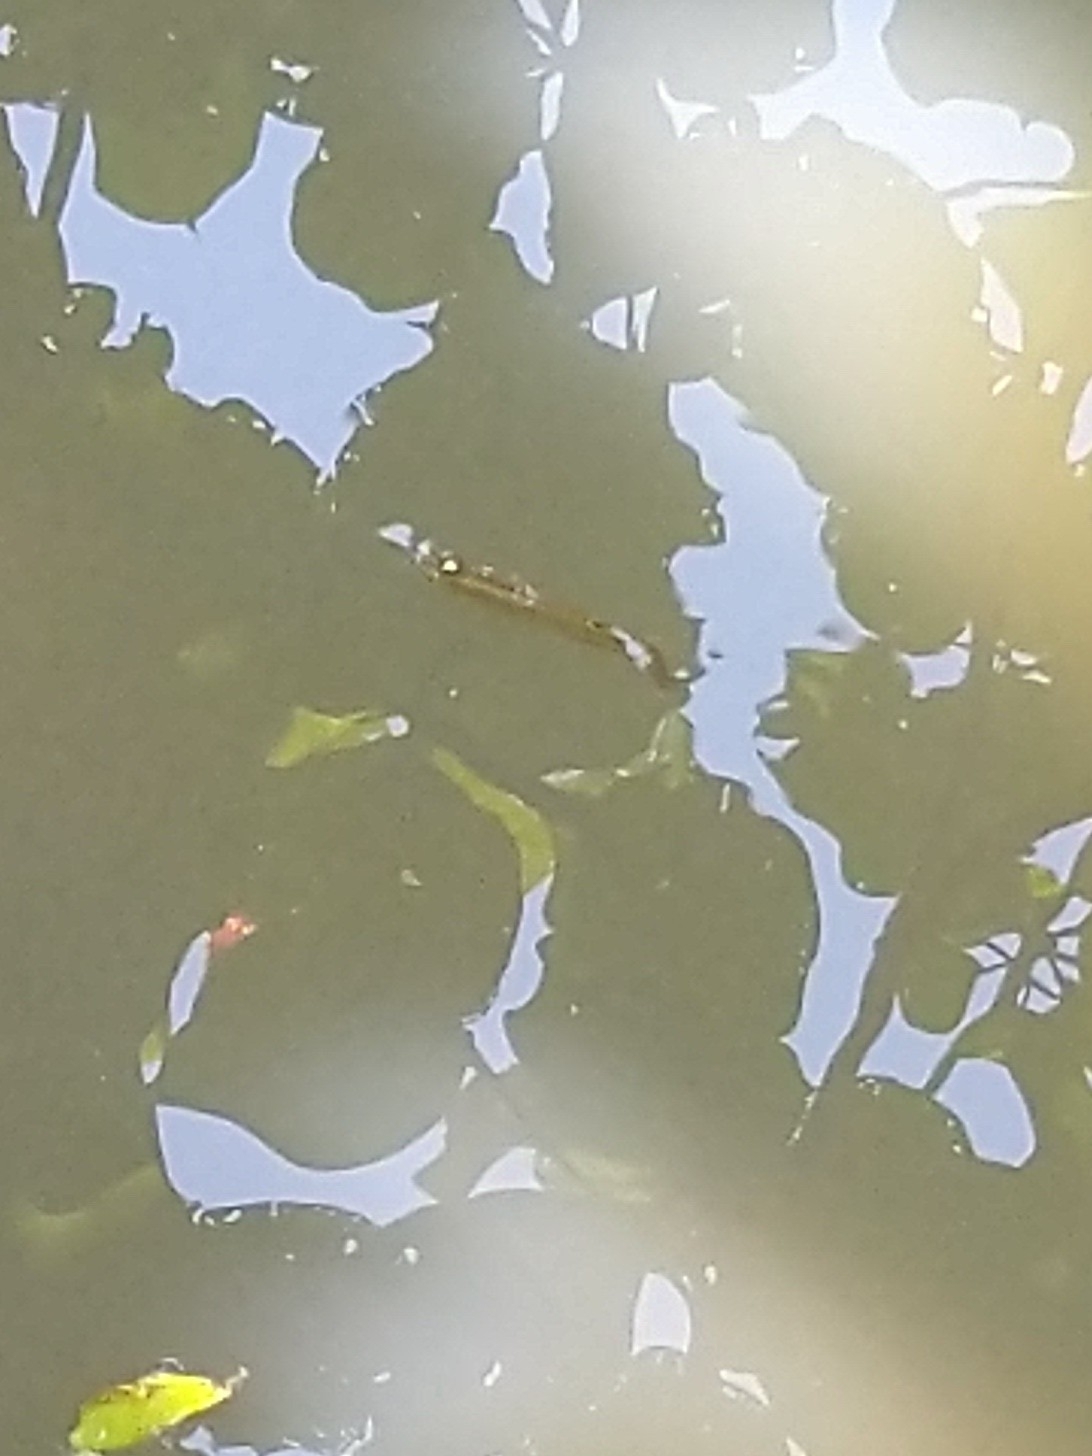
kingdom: Animalia
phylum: Chordata
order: Cyprinodontiformes
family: Aplocheilidae
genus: Aplocheilus
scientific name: Aplocheilus lineatus
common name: Striped panchax
